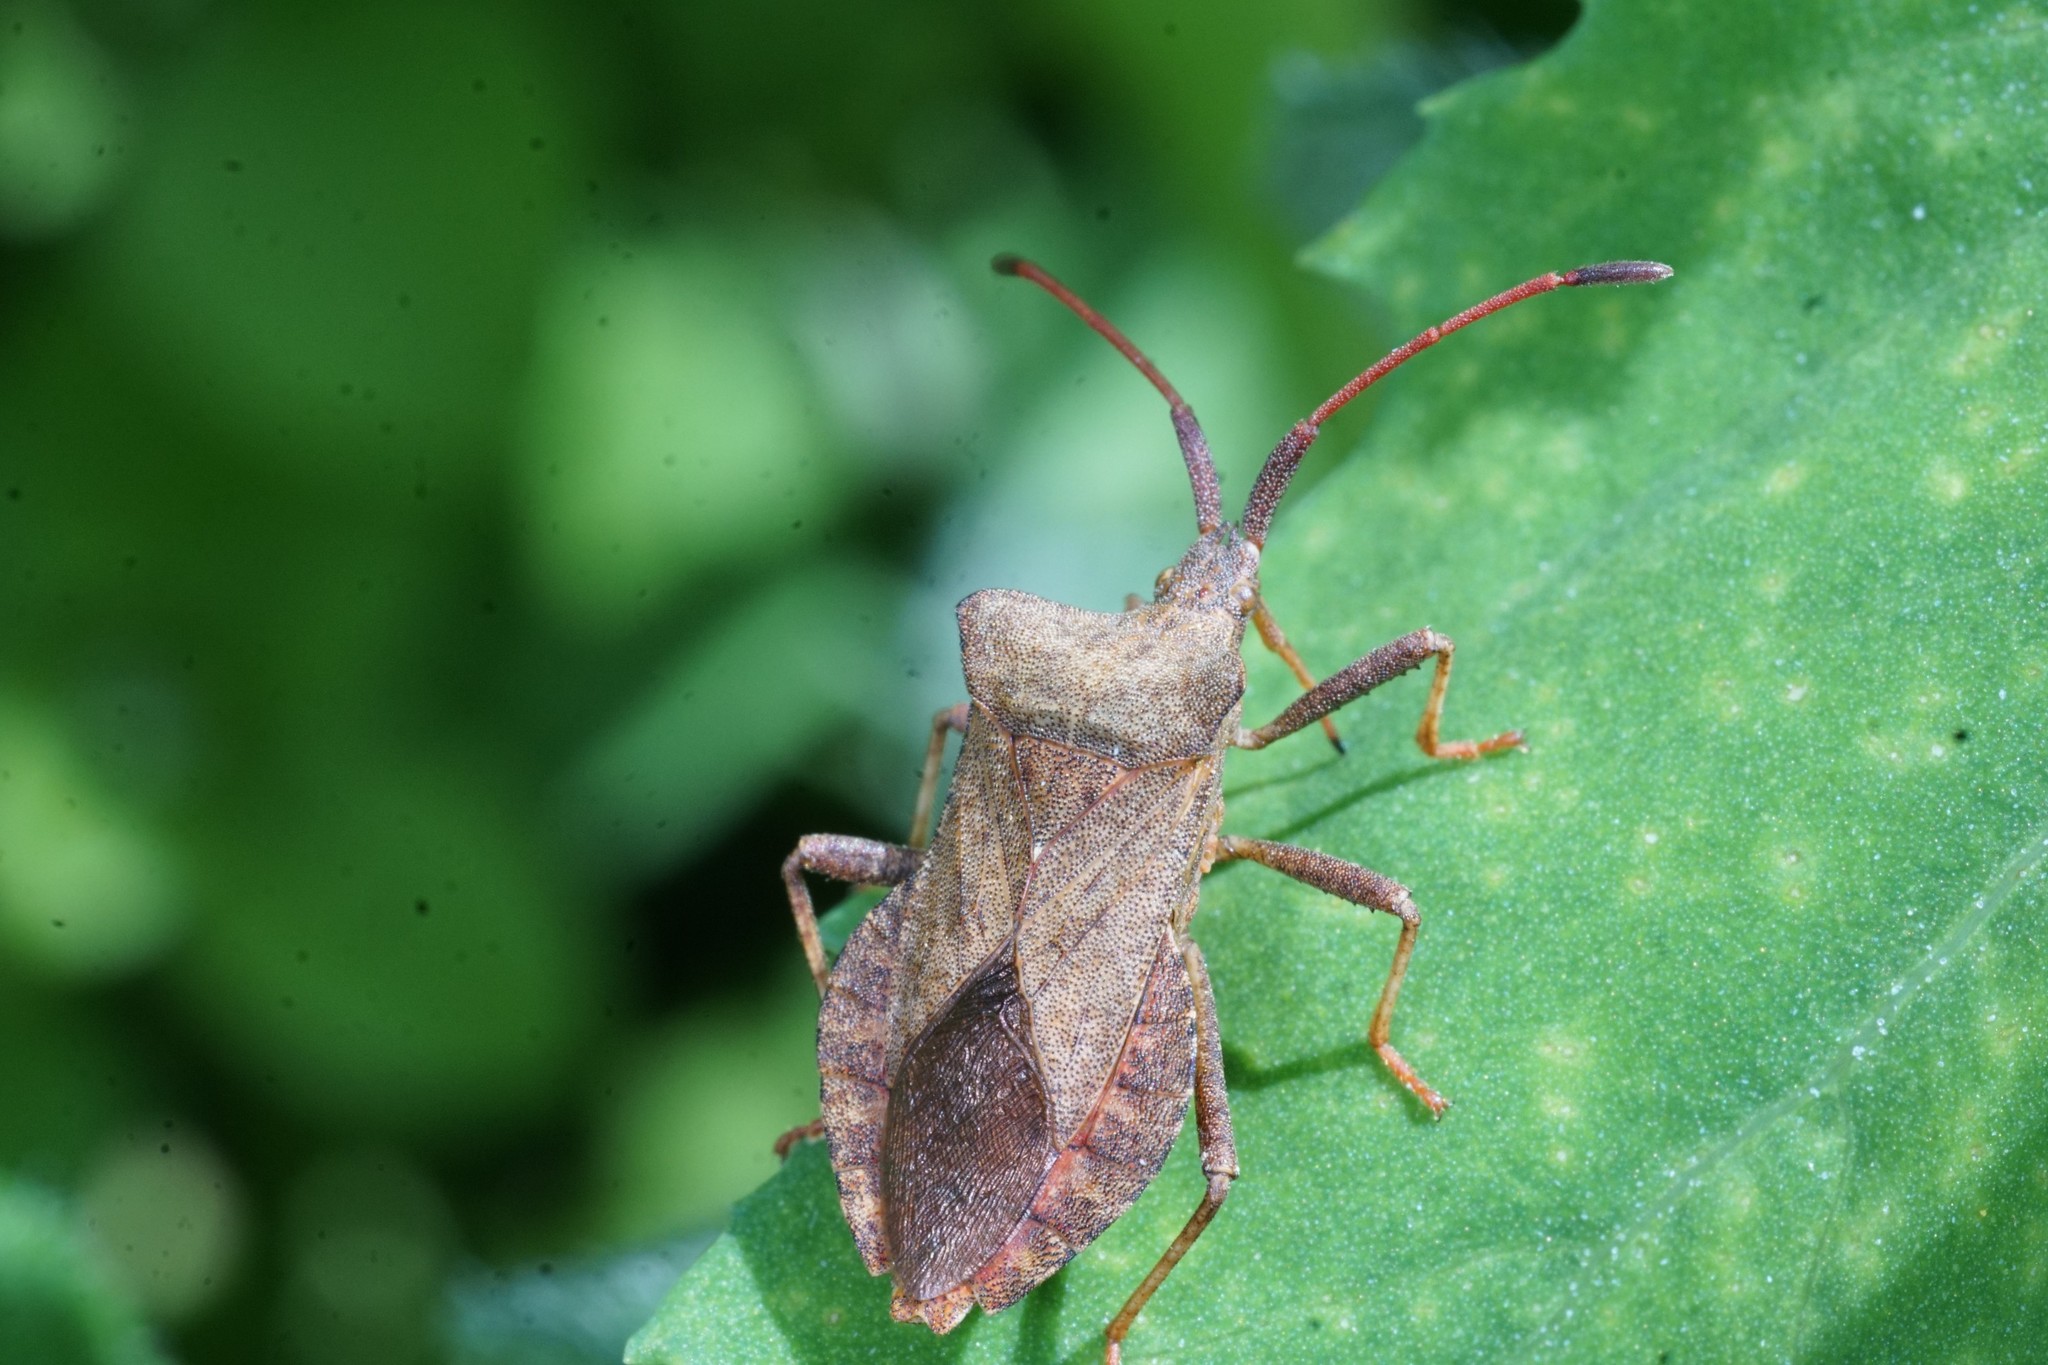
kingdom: Animalia
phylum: Arthropoda
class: Insecta
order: Hemiptera
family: Coreidae
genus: Coreus
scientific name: Coreus marginatus
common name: Dock bug
